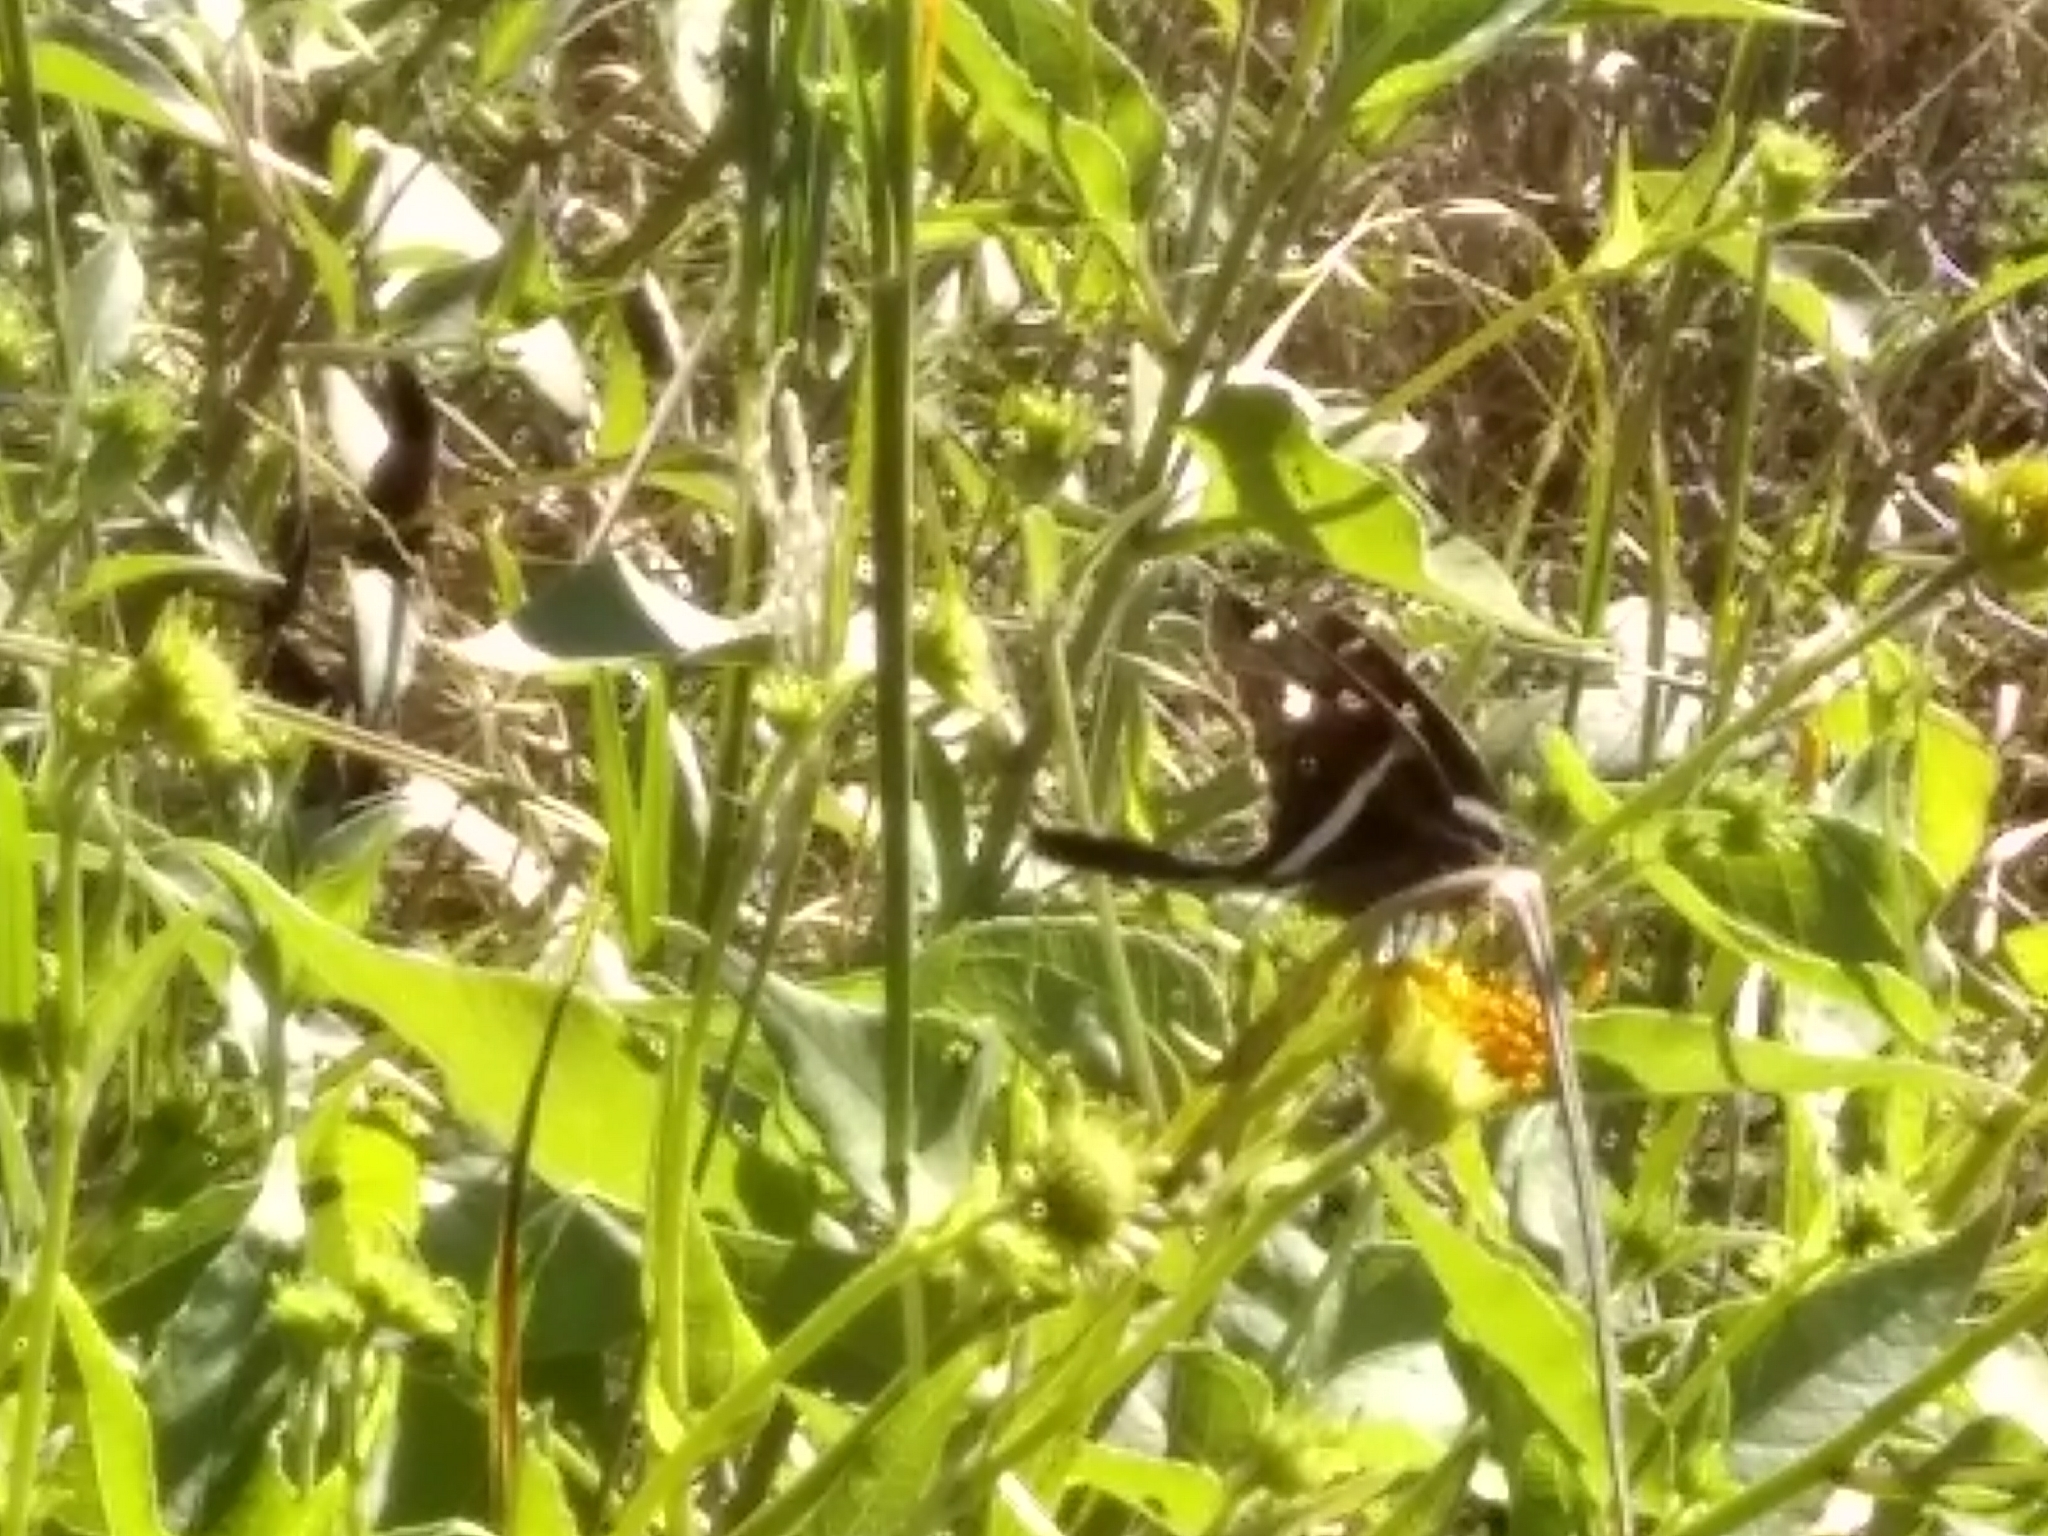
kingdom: Animalia
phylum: Arthropoda
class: Insecta
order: Lepidoptera
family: Hesperiidae
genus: Chioides
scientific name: Chioides catillus
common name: Silverbanded skipper
